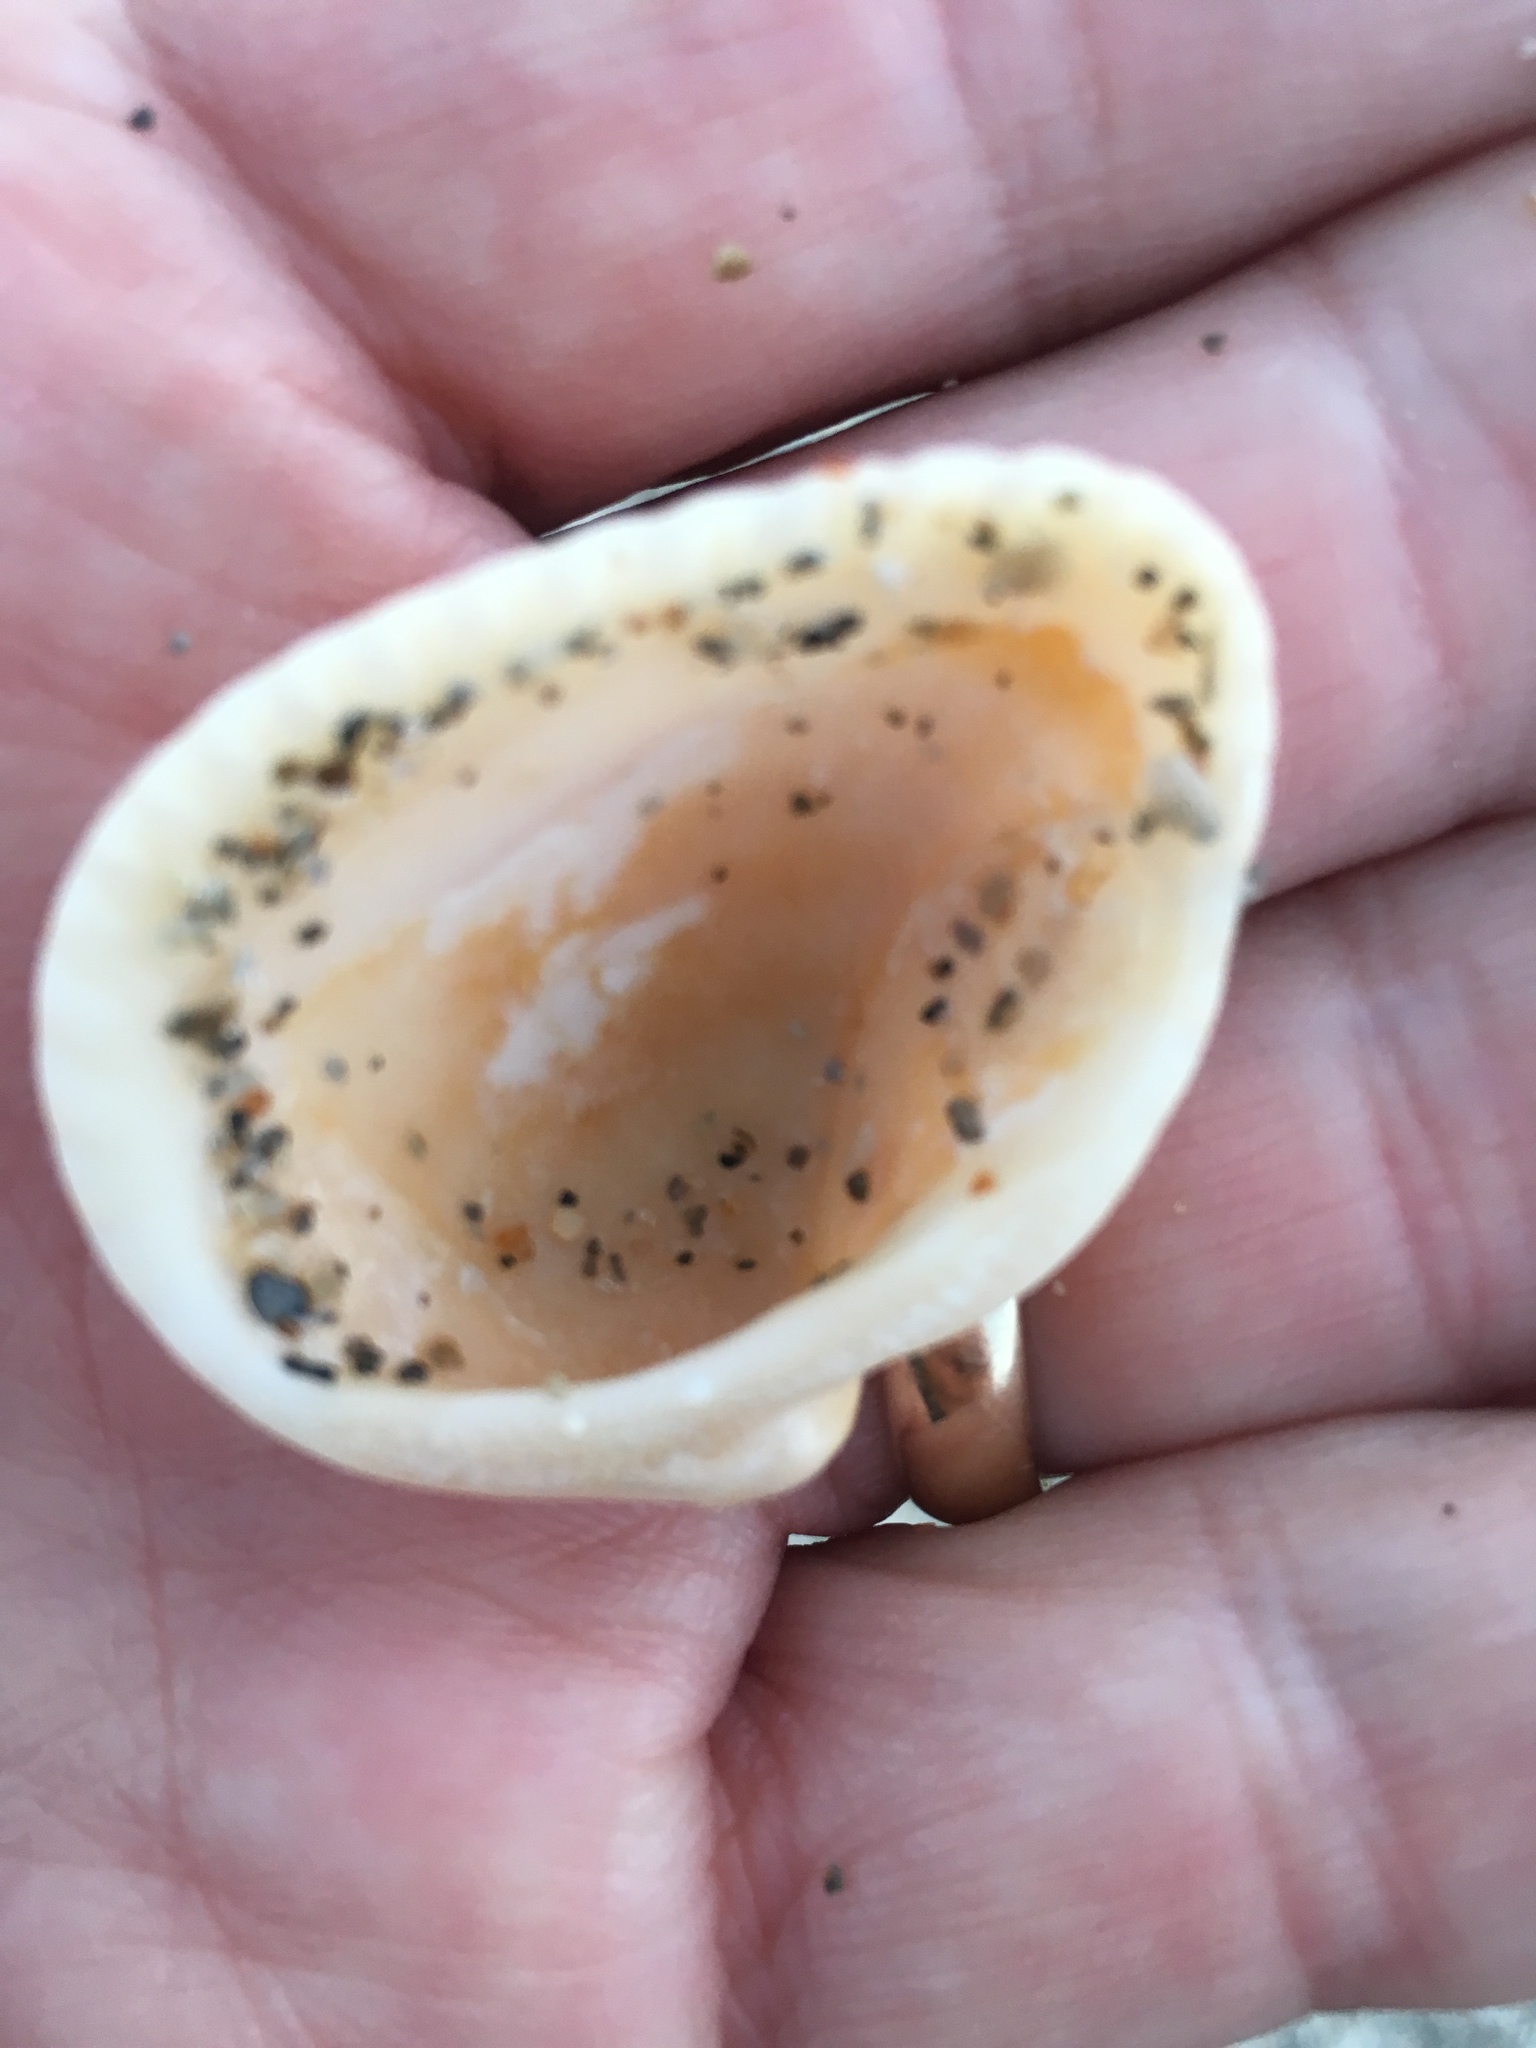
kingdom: Animalia
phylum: Mollusca
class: Bivalvia
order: Arcida
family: Noetiidae
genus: Noetia
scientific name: Noetia ponderosa
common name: Ponderous ark
